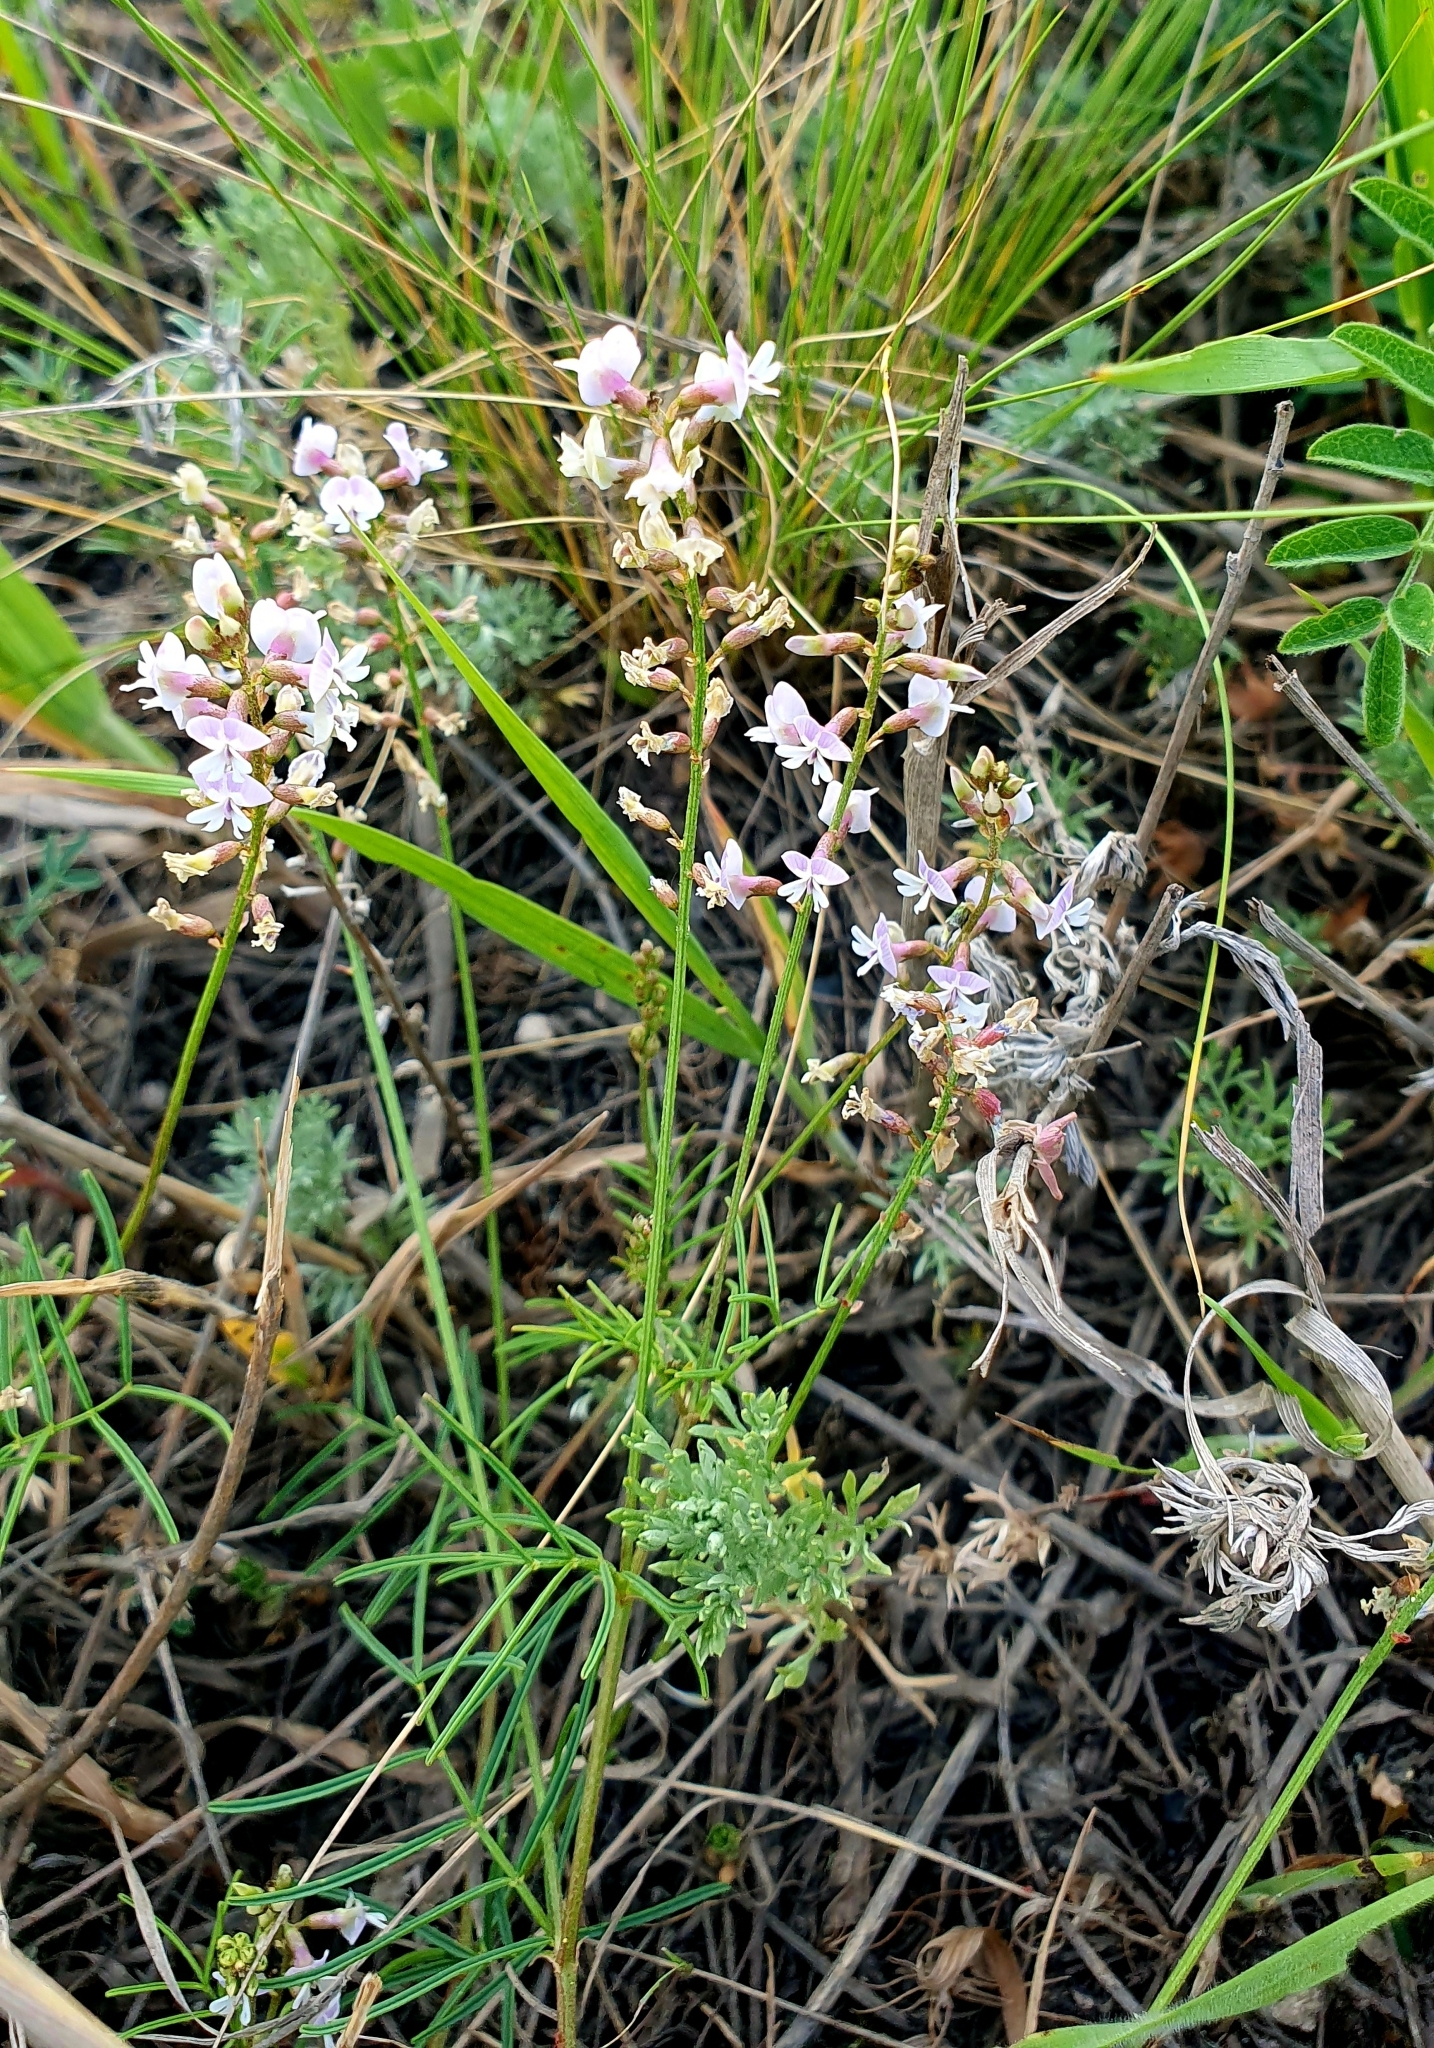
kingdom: Plantae
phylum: Tracheophyta
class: Magnoliopsida
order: Fabales
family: Fabaceae
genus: Astragalus
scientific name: Astragalus austriacus
